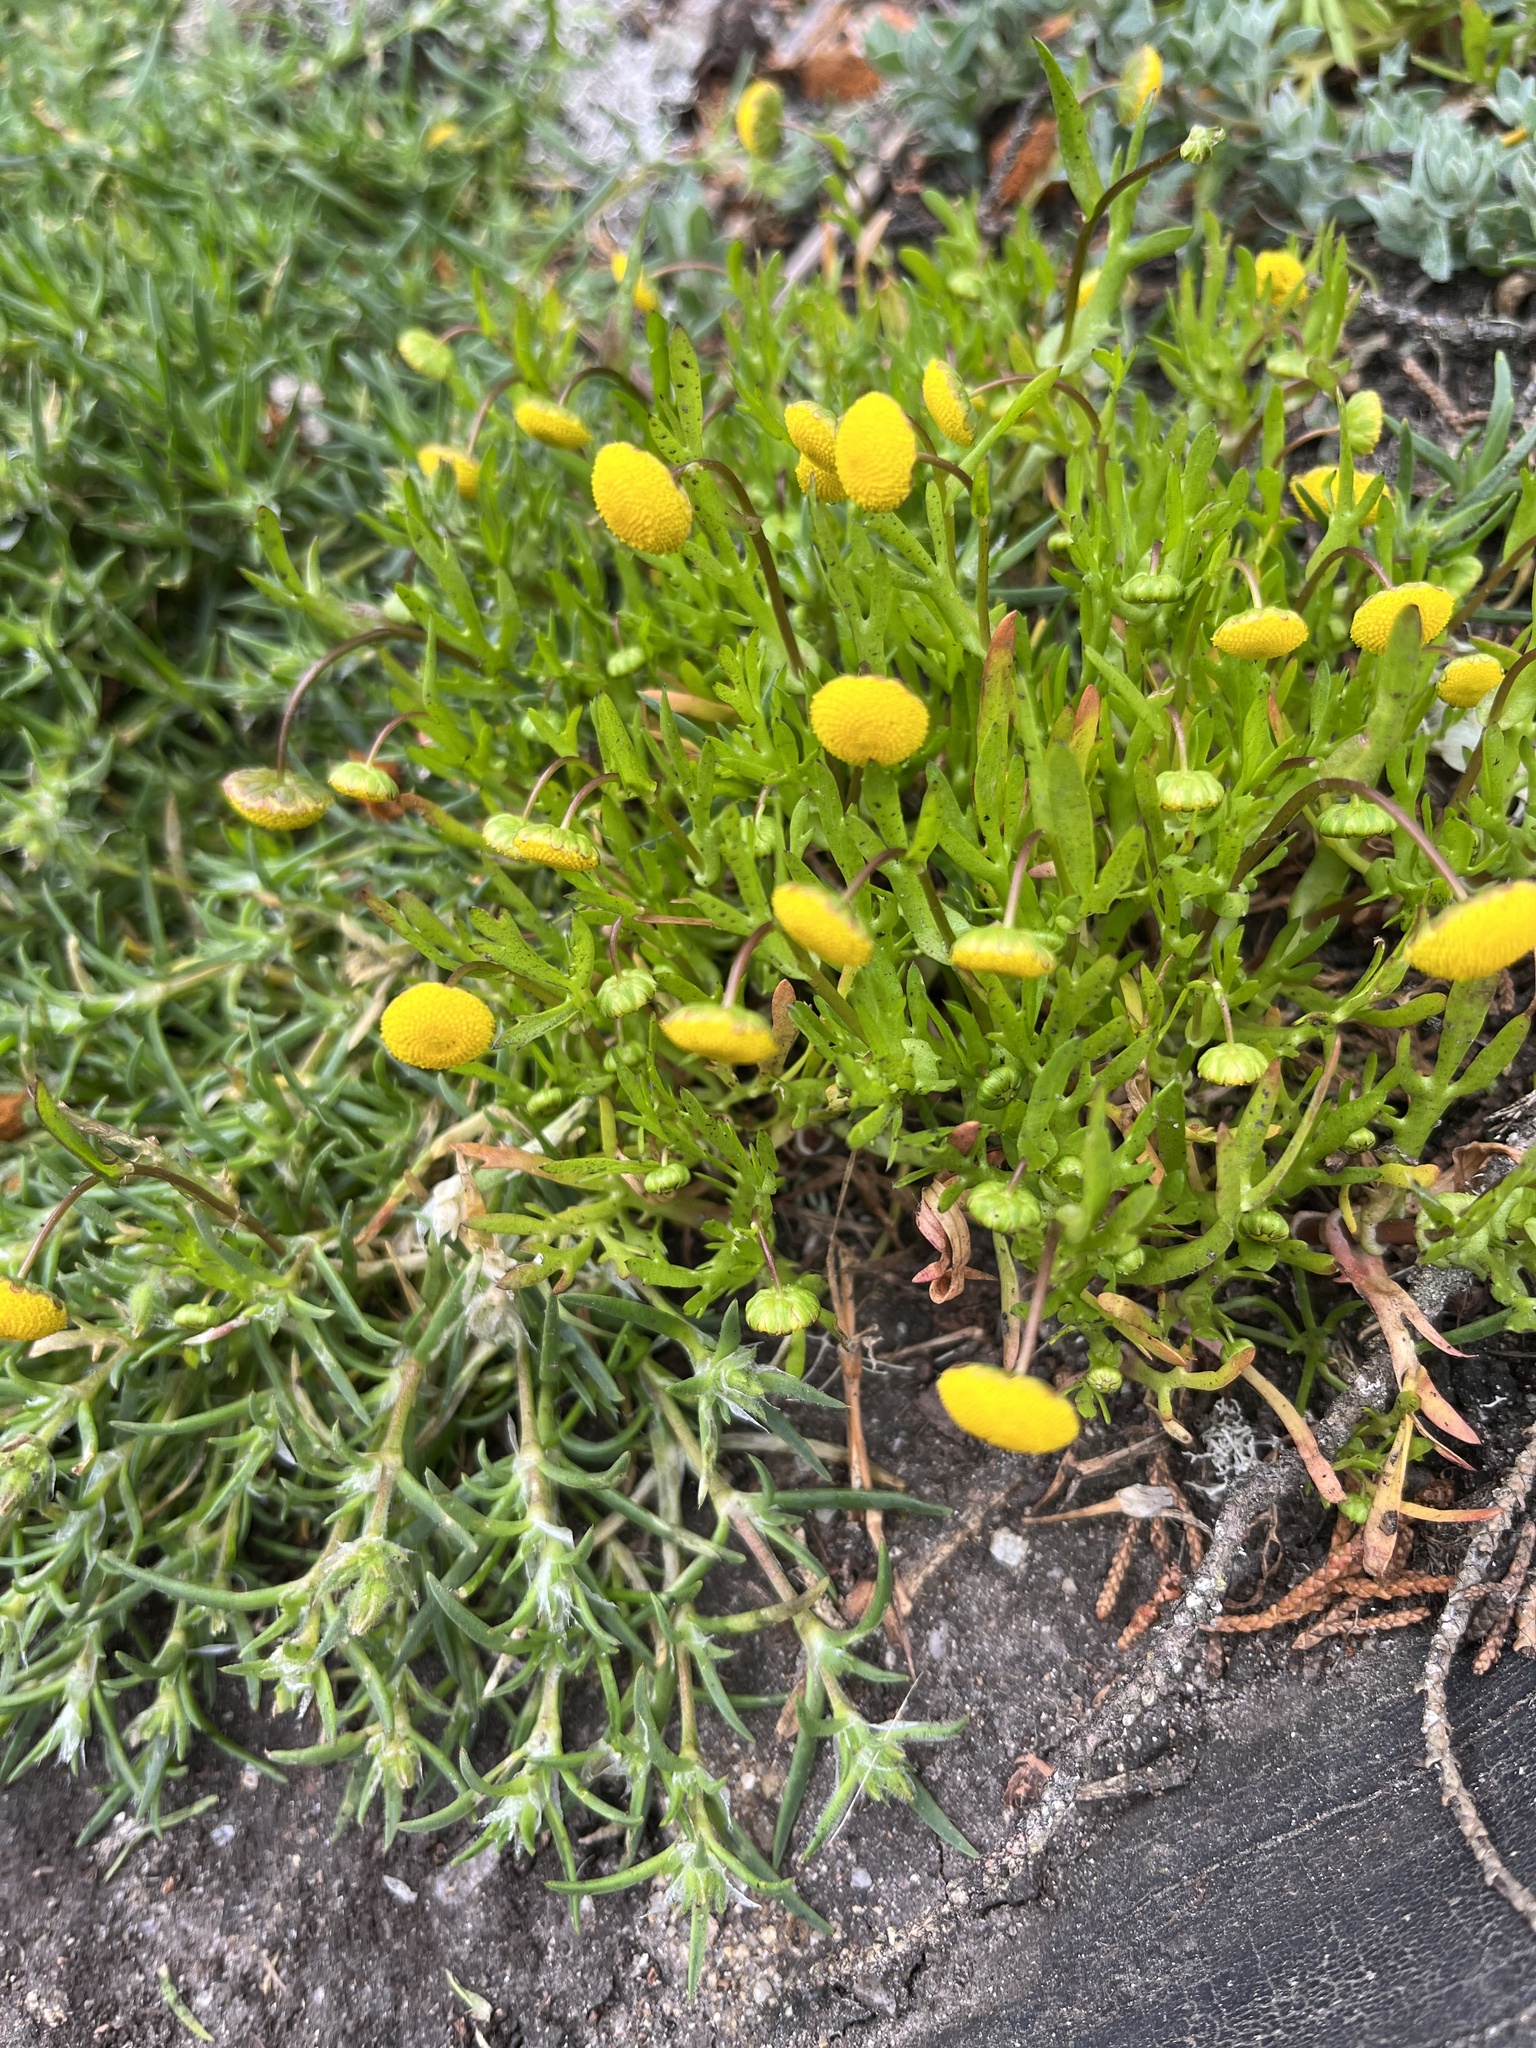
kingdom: Plantae
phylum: Tracheophyta
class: Magnoliopsida
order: Asterales
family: Asteraceae
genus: Cotula
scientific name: Cotula coronopifolia
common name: Buttonweed
